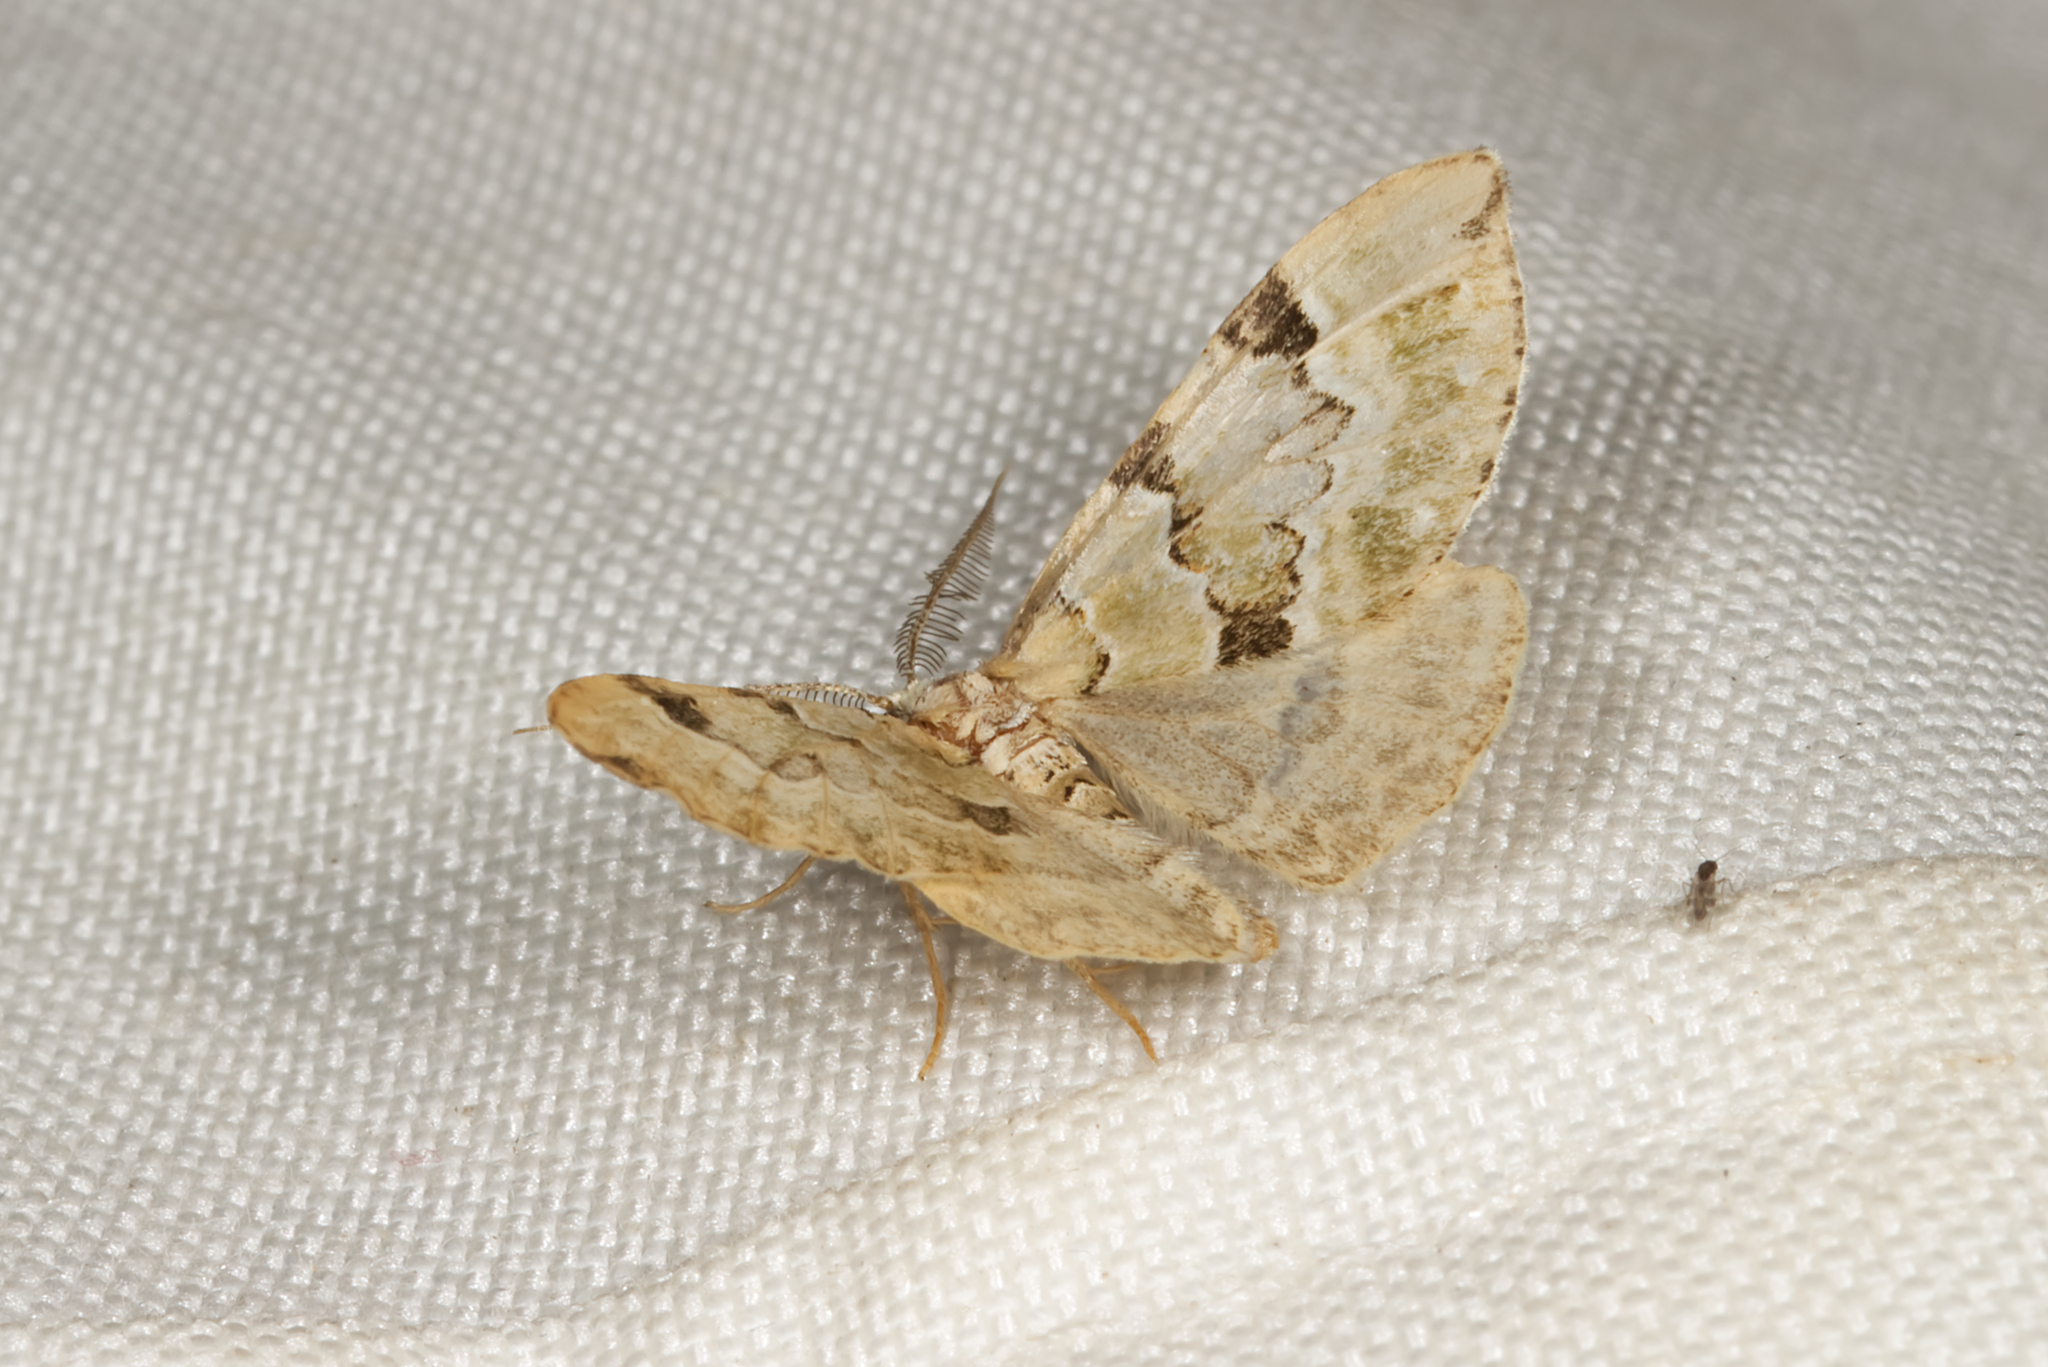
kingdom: Animalia
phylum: Arthropoda
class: Insecta
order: Lepidoptera
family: Geometridae
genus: Colostygia
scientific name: Colostygia pectinataria
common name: Green carpet
